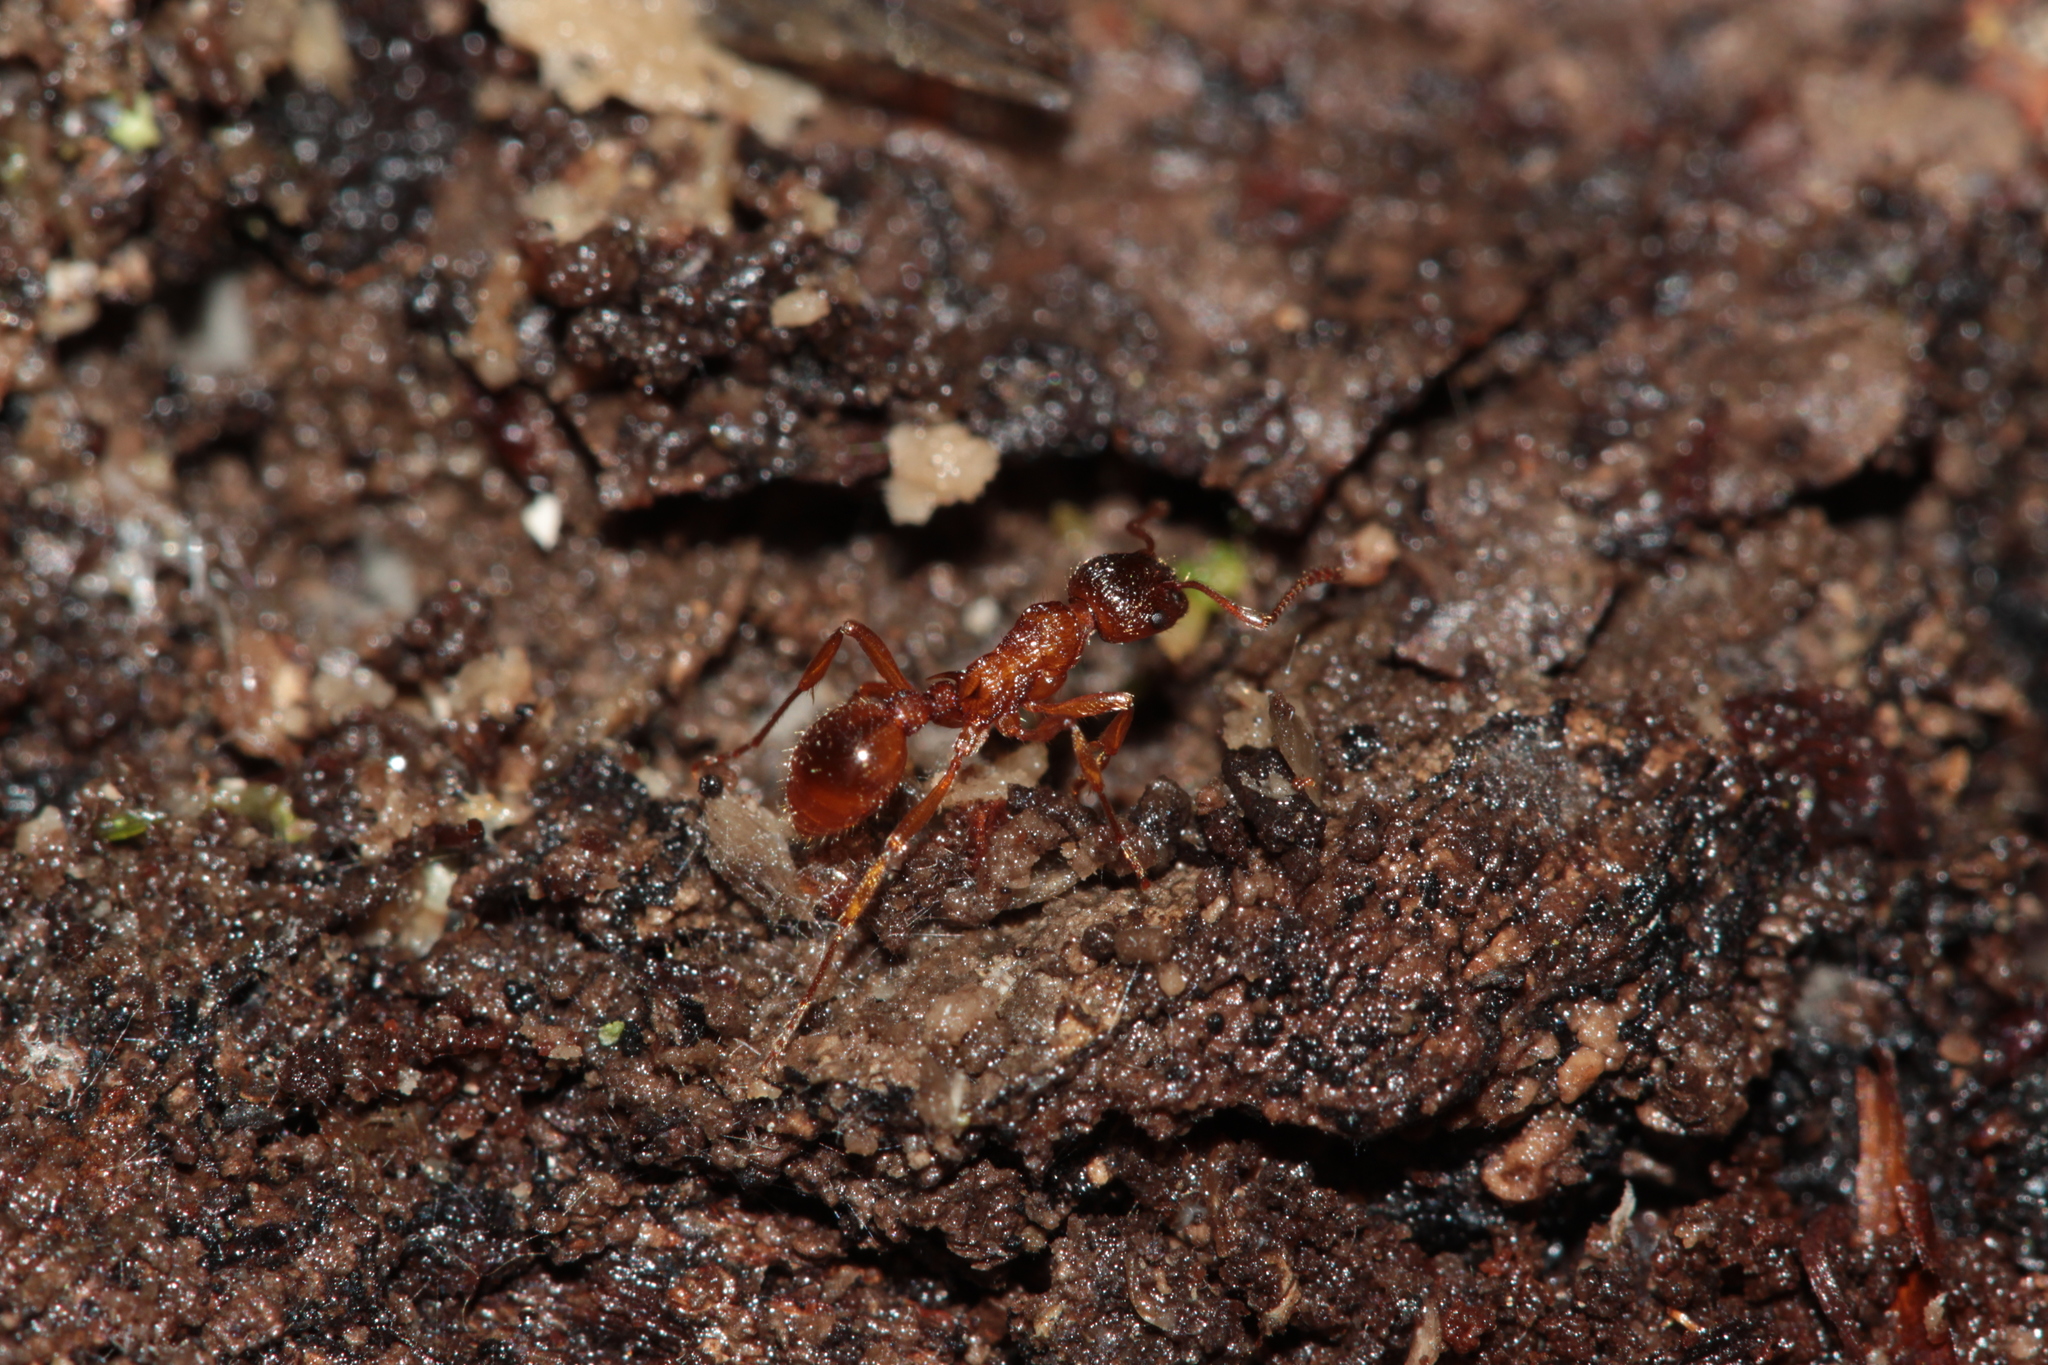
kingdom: Animalia
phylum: Arthropoda
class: Insecta
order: Hymenoptera
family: Formicidae
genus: Myrmica
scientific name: Myrmica ruginodis
